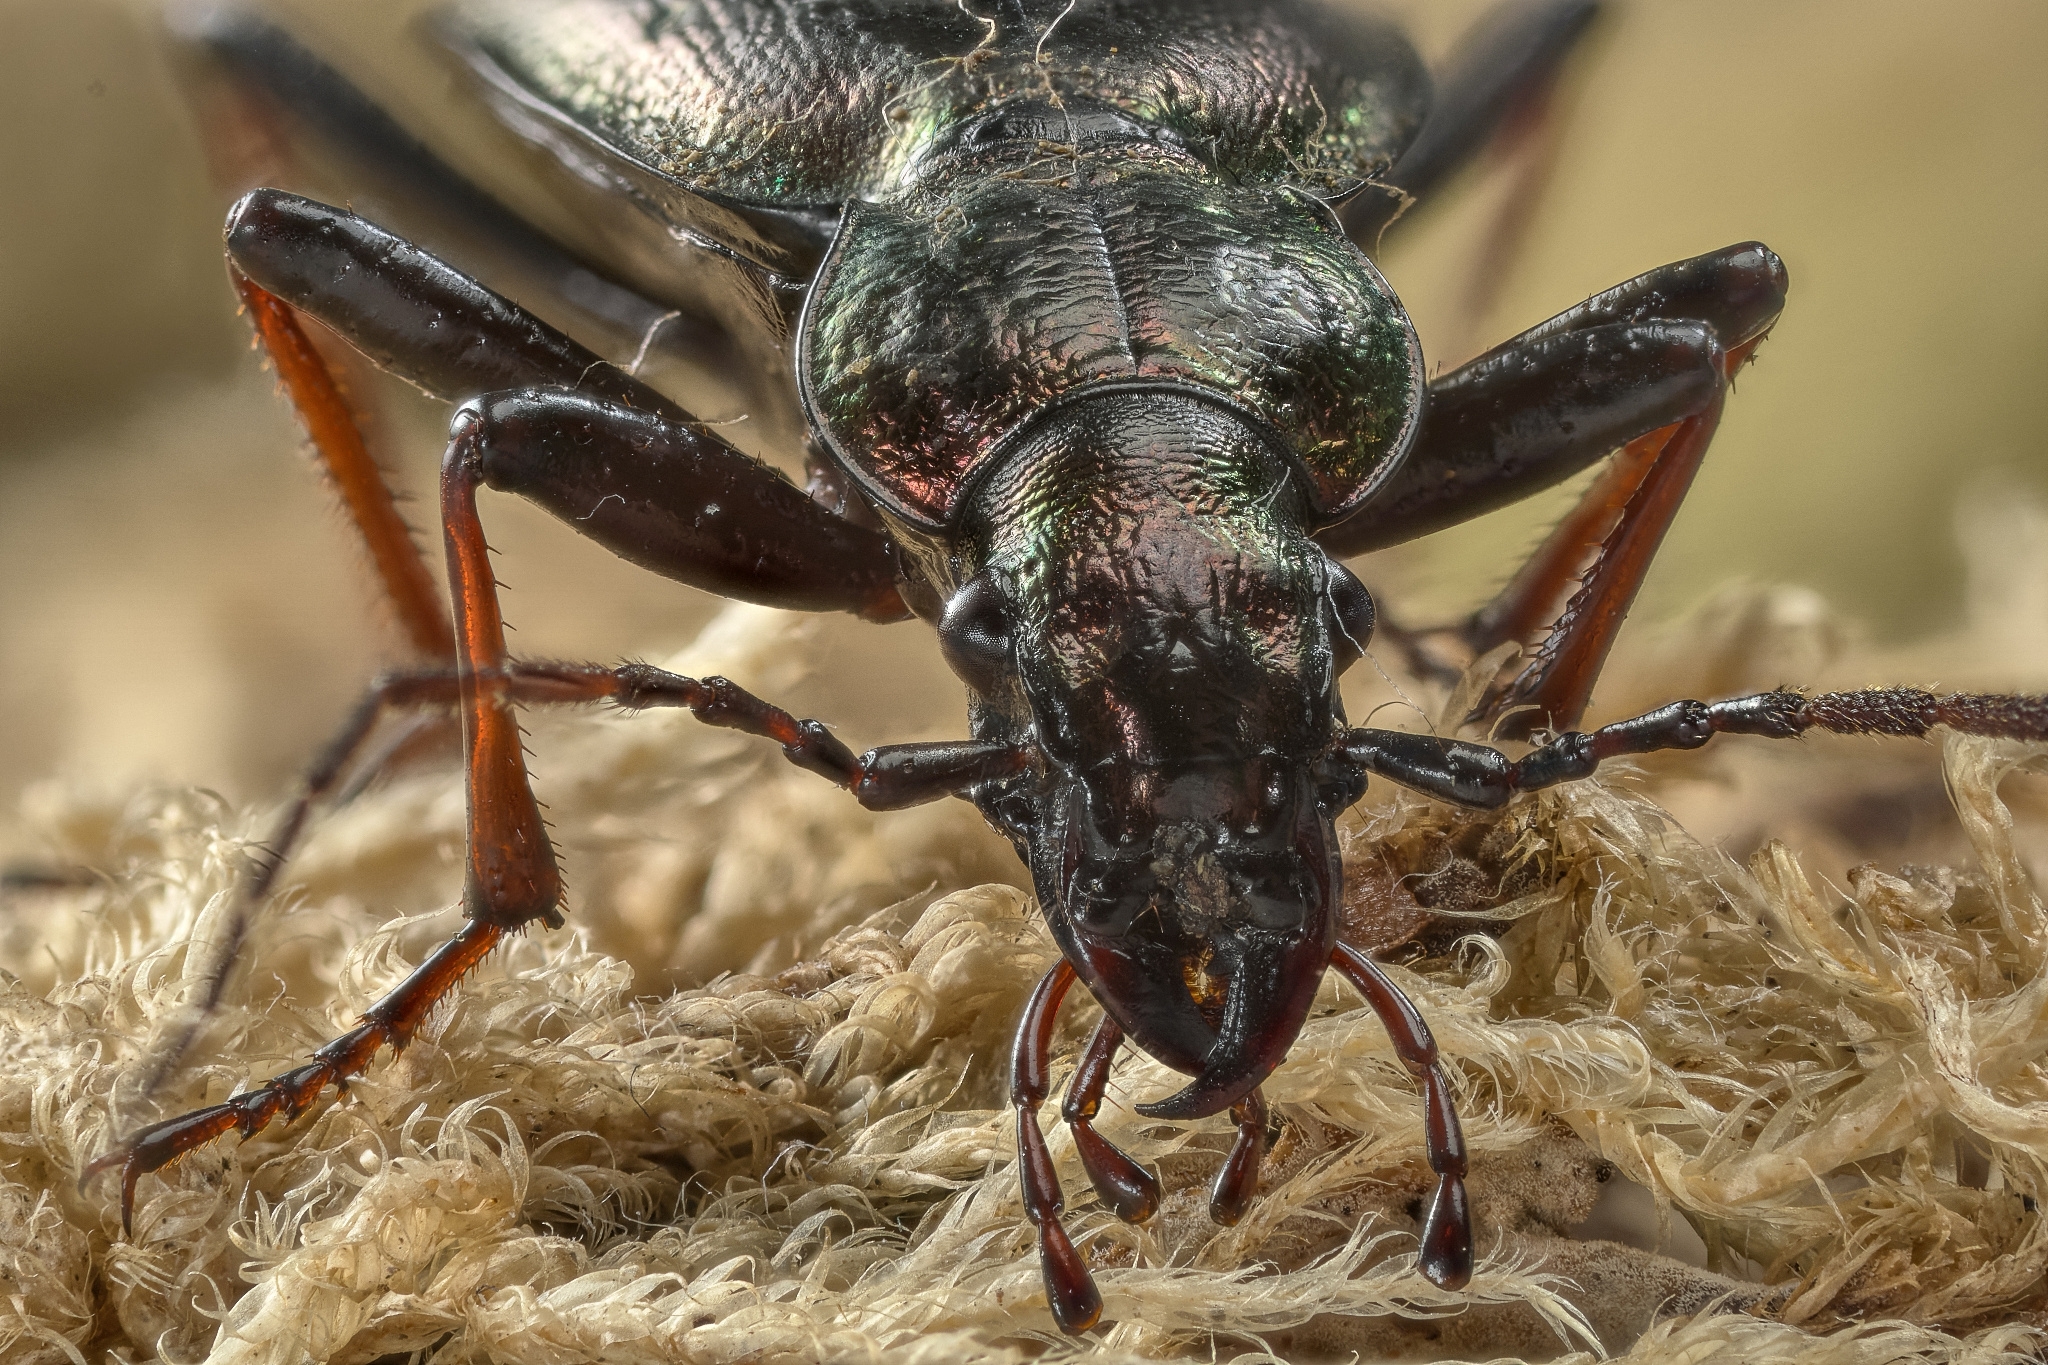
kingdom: Animalia
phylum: Arthropoda
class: Insecta
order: Coleoptera
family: Carabidae
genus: Carabus
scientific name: Carabus depressus
